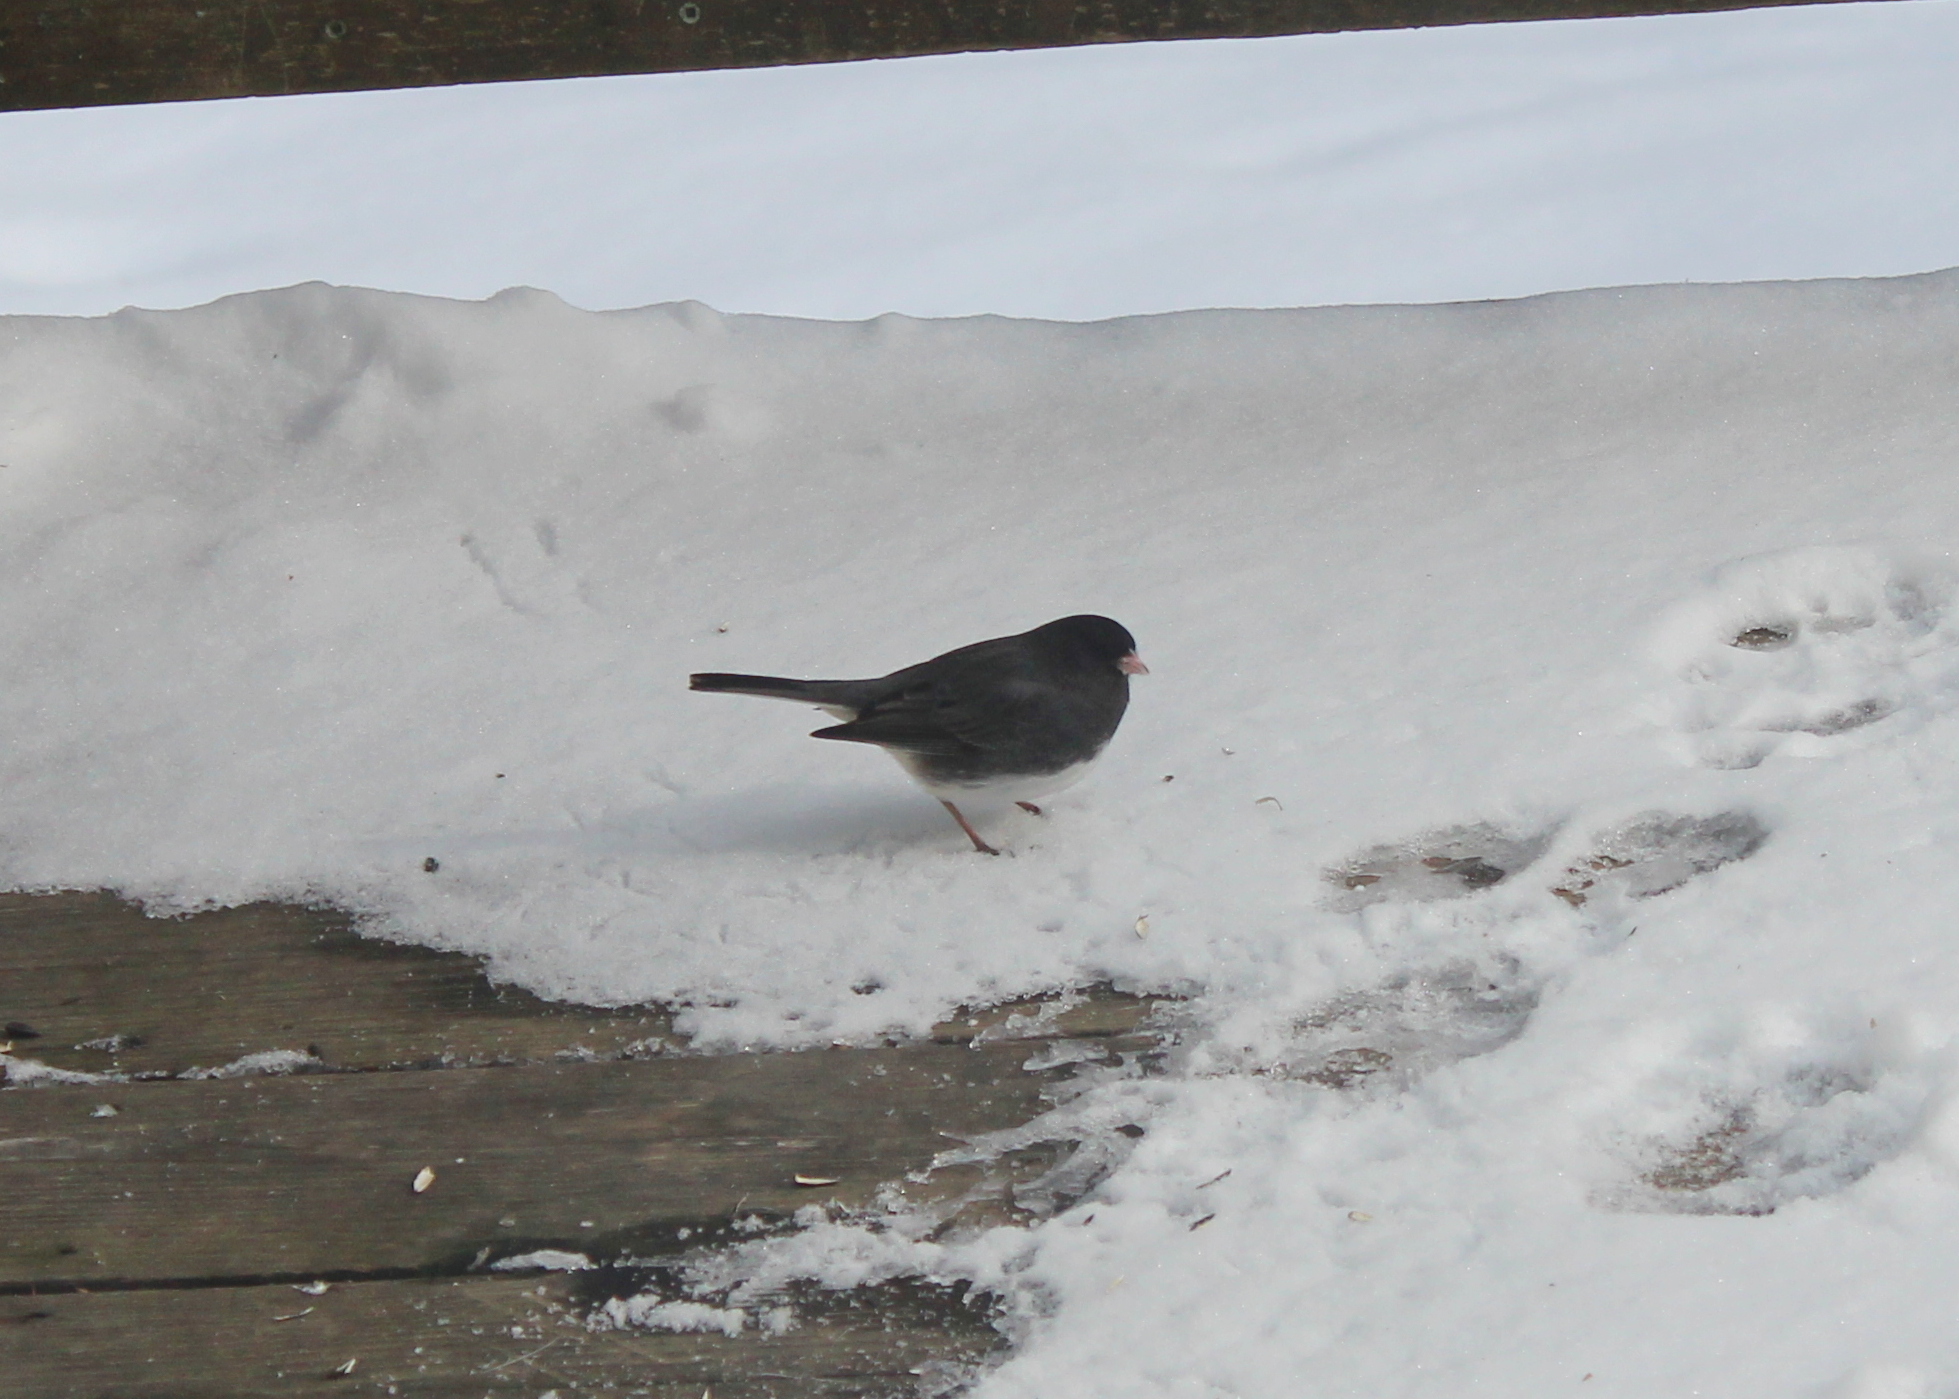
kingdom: Animalia
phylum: Chordata
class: Aves
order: Passeriformes
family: Passerellidae
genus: Junco
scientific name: Junco hyemalis
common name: Dark-eyed junco
